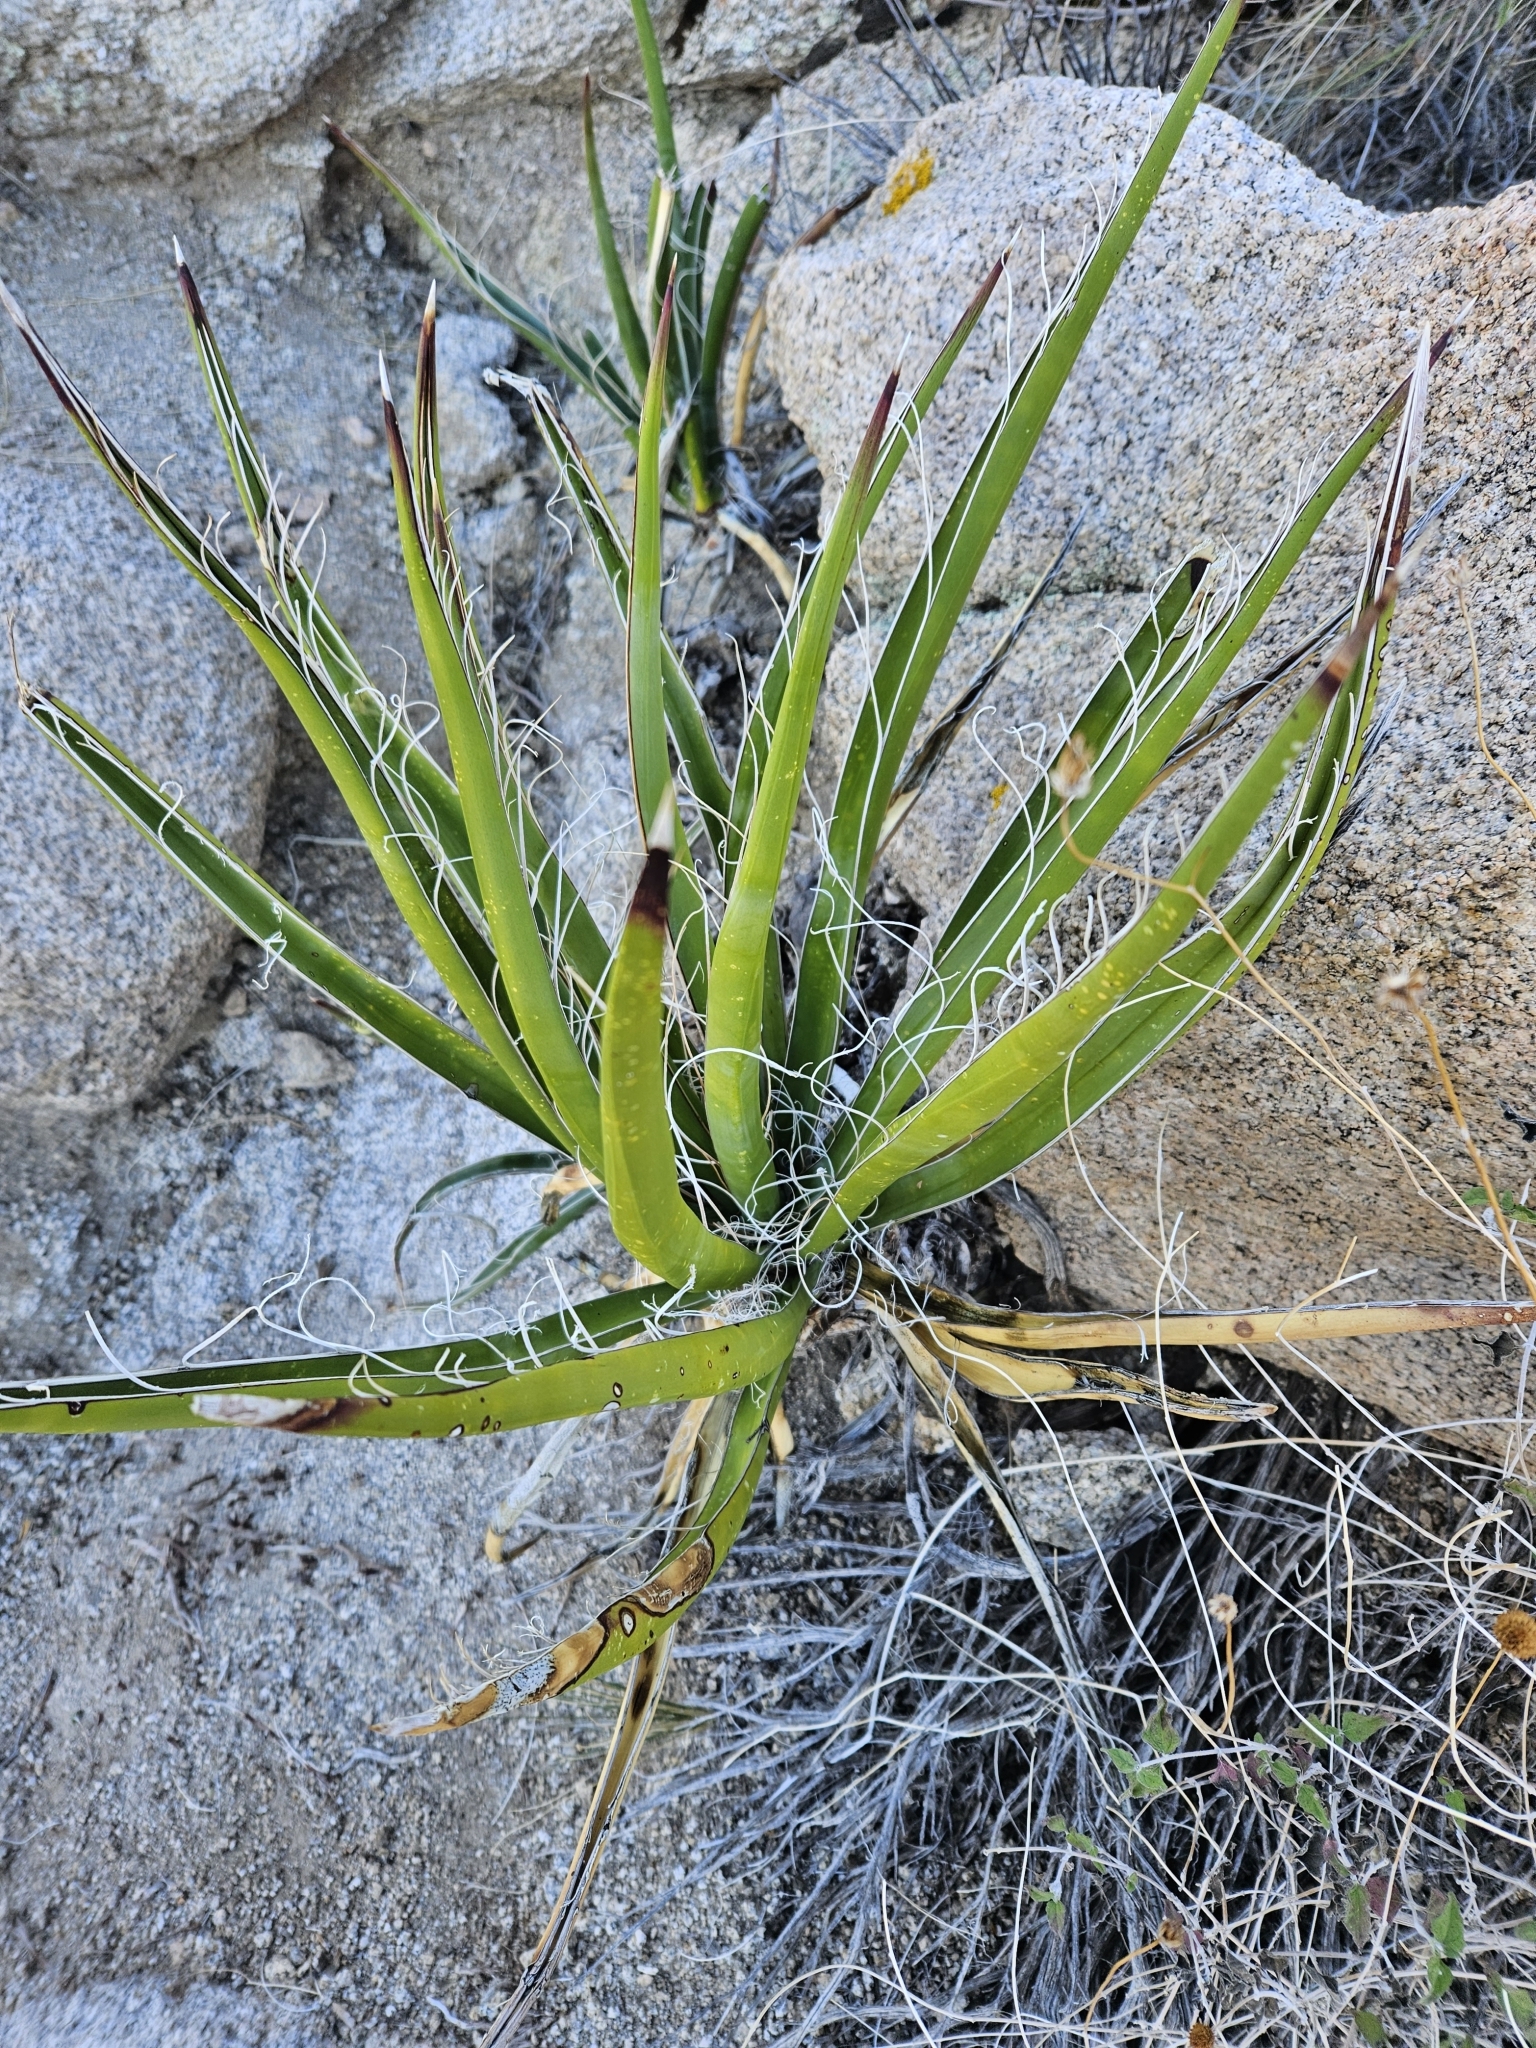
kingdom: Plantae
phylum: Tracheophyta
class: Liliopsida
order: Asparagales
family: Asparagaceae
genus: Yucca
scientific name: Yucca schidigera
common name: Mojave yucca
